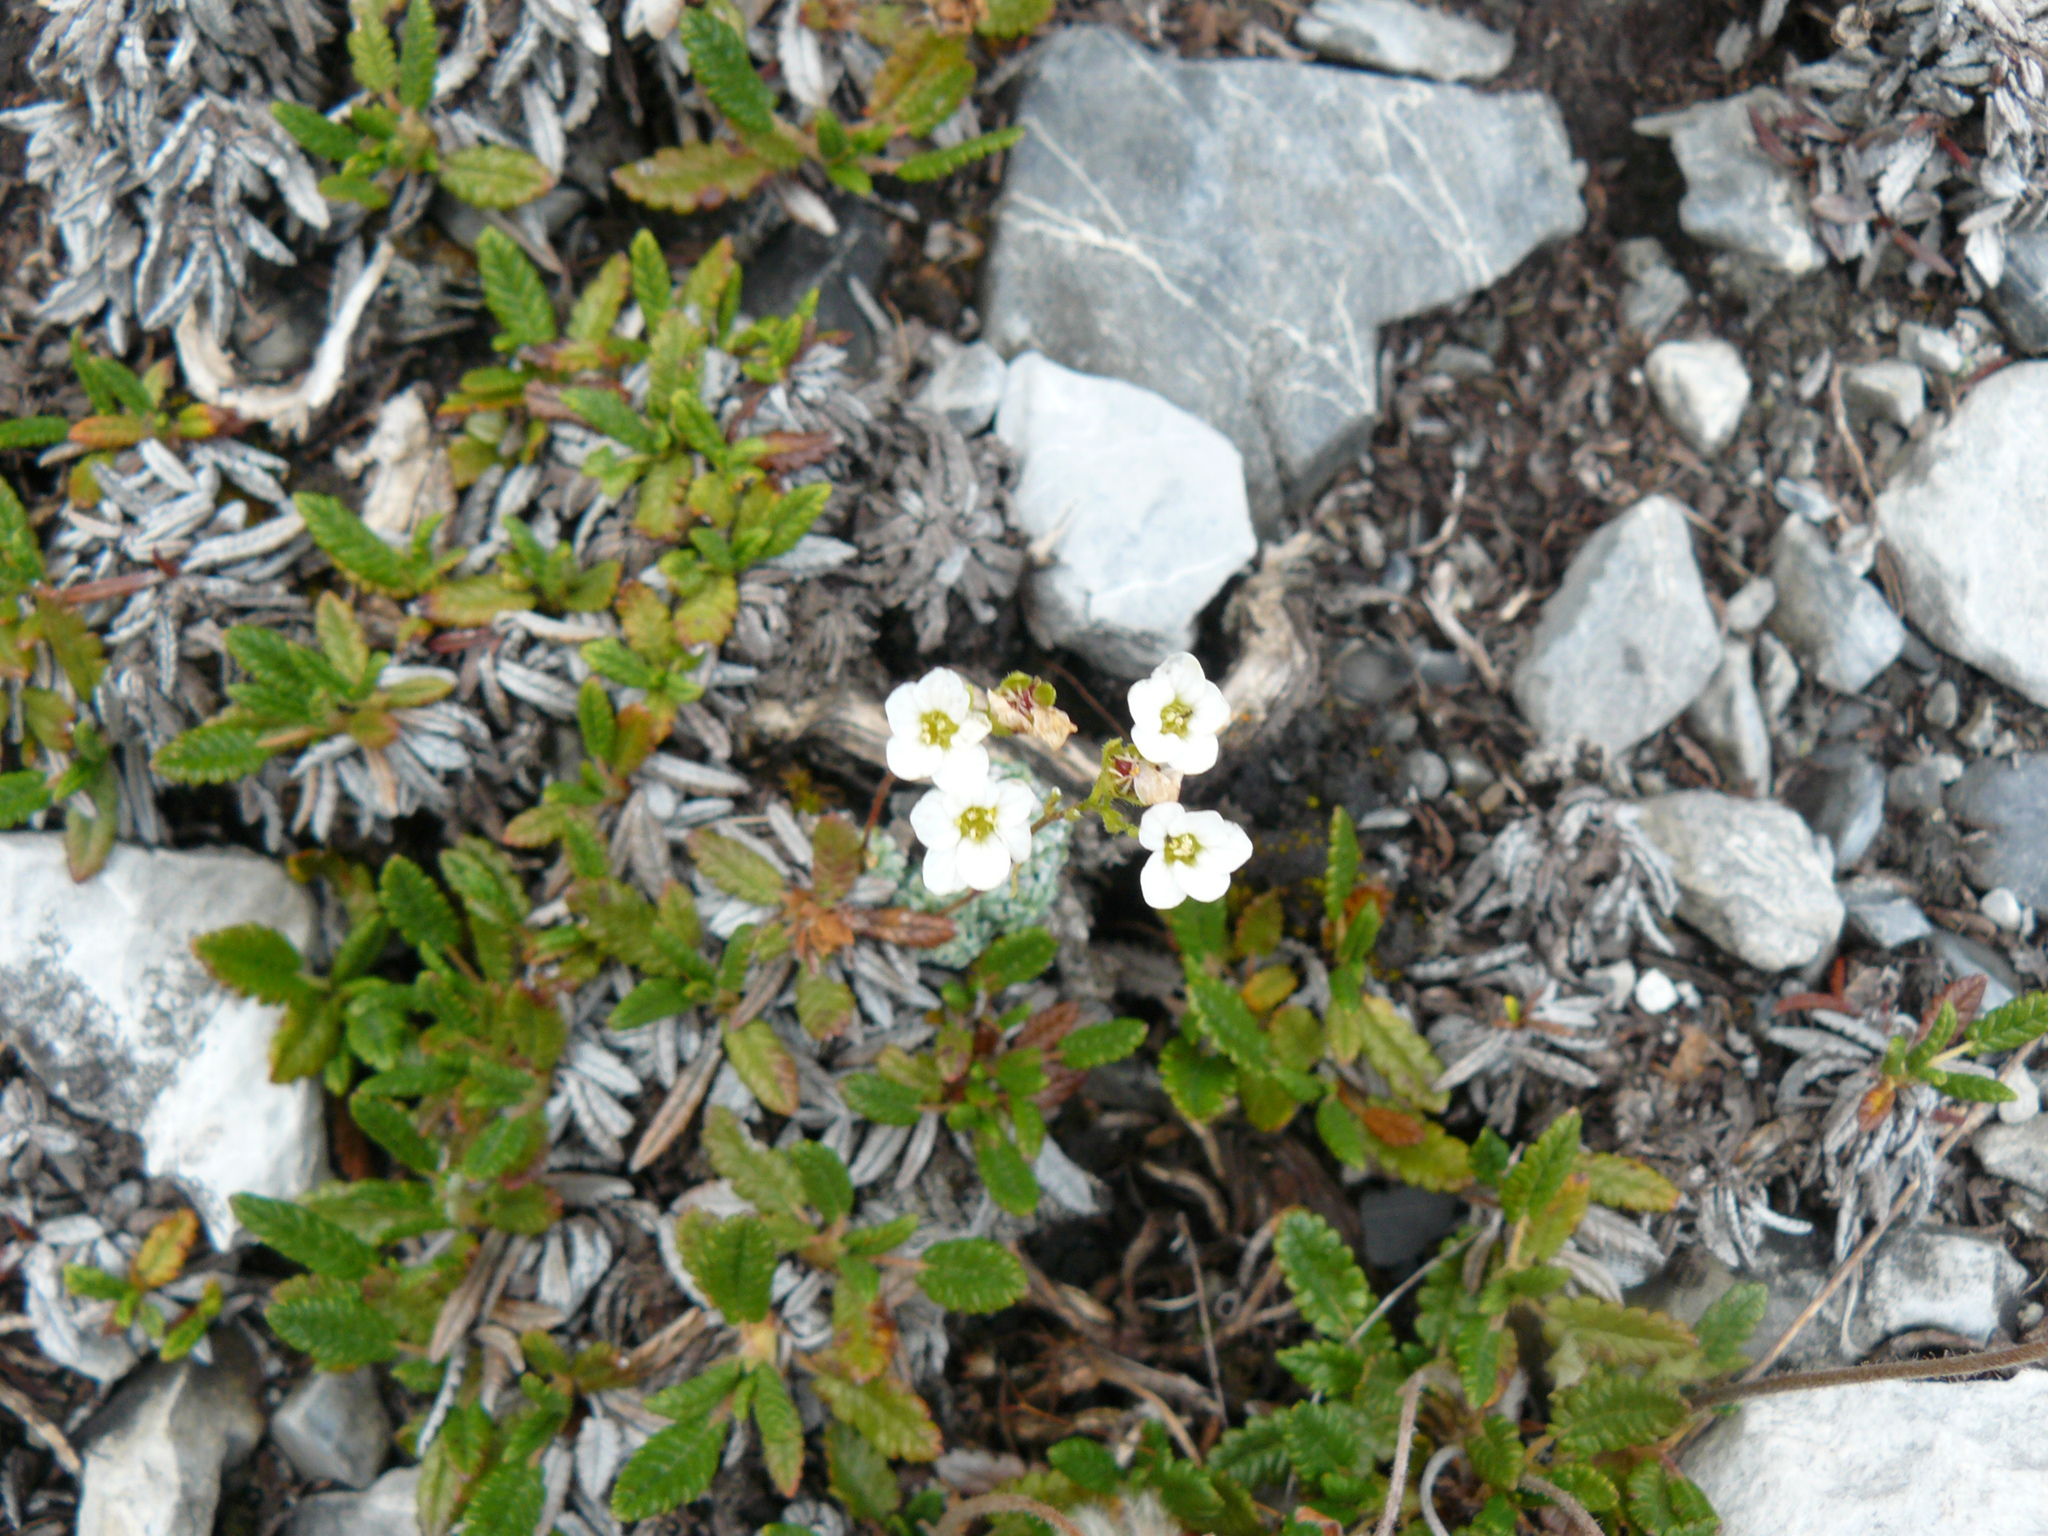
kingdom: Plantae
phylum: Tracheophyta
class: Magnoliopsida
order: Saxifragales
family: Saxifragaceae
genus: Saxifraga
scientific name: Saxifraga caesia
